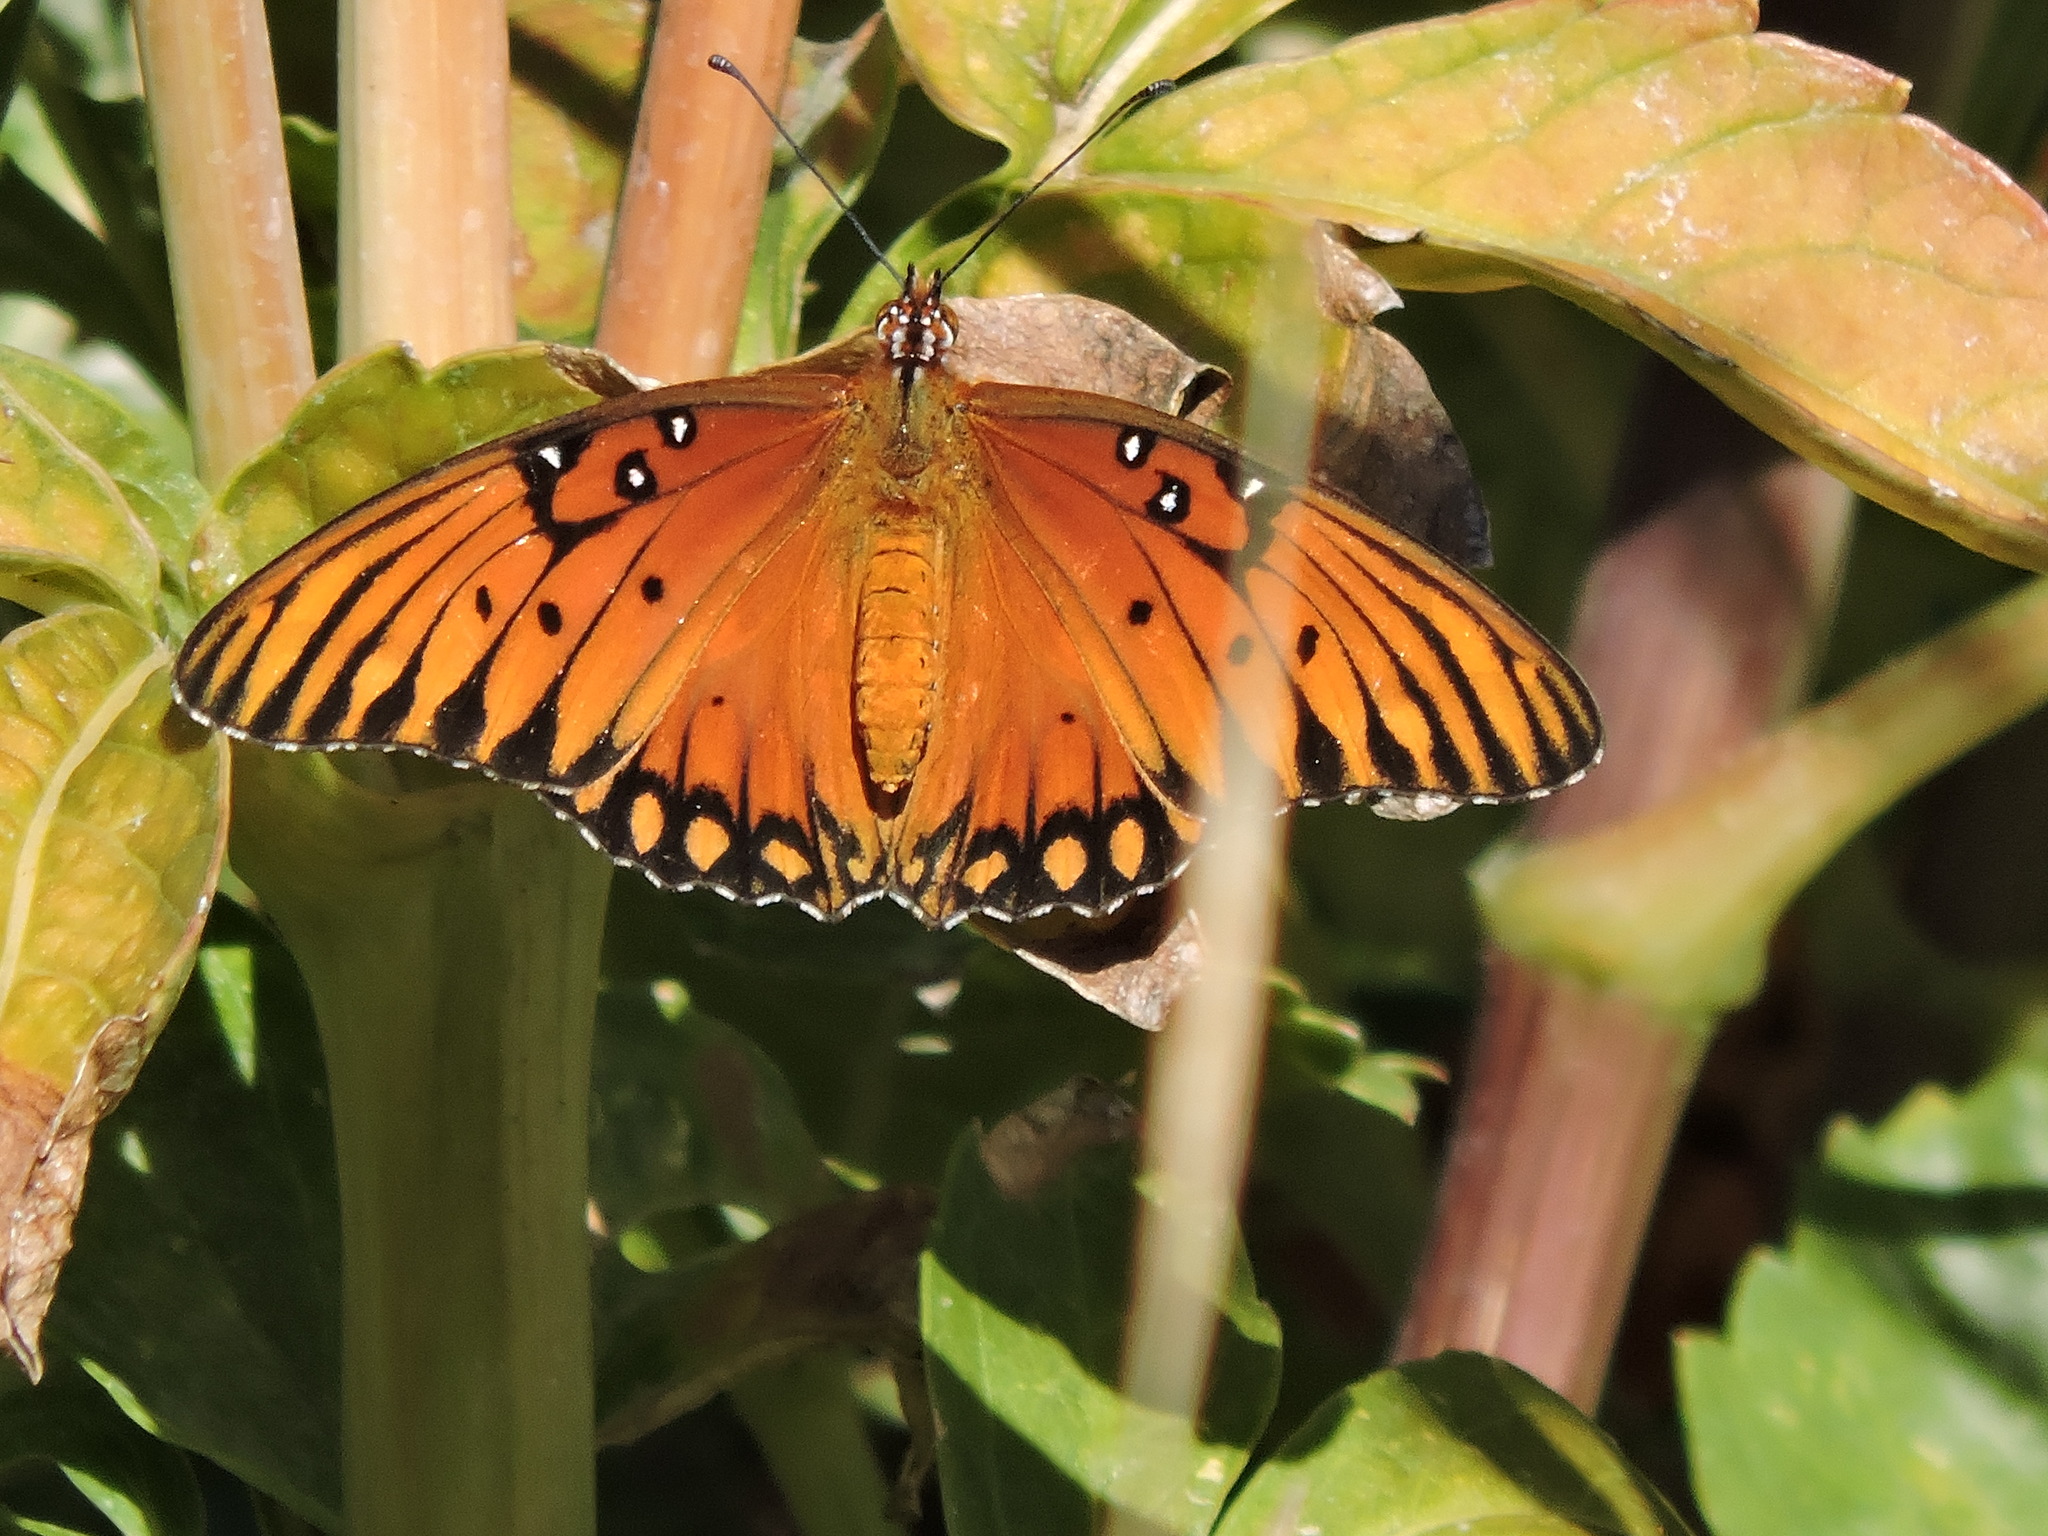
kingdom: Animalia
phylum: Arthropoda
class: Insecta
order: Lepidoptera
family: Nymphalidae
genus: Dione
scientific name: Dione vanillae
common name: Gulf fritillary
